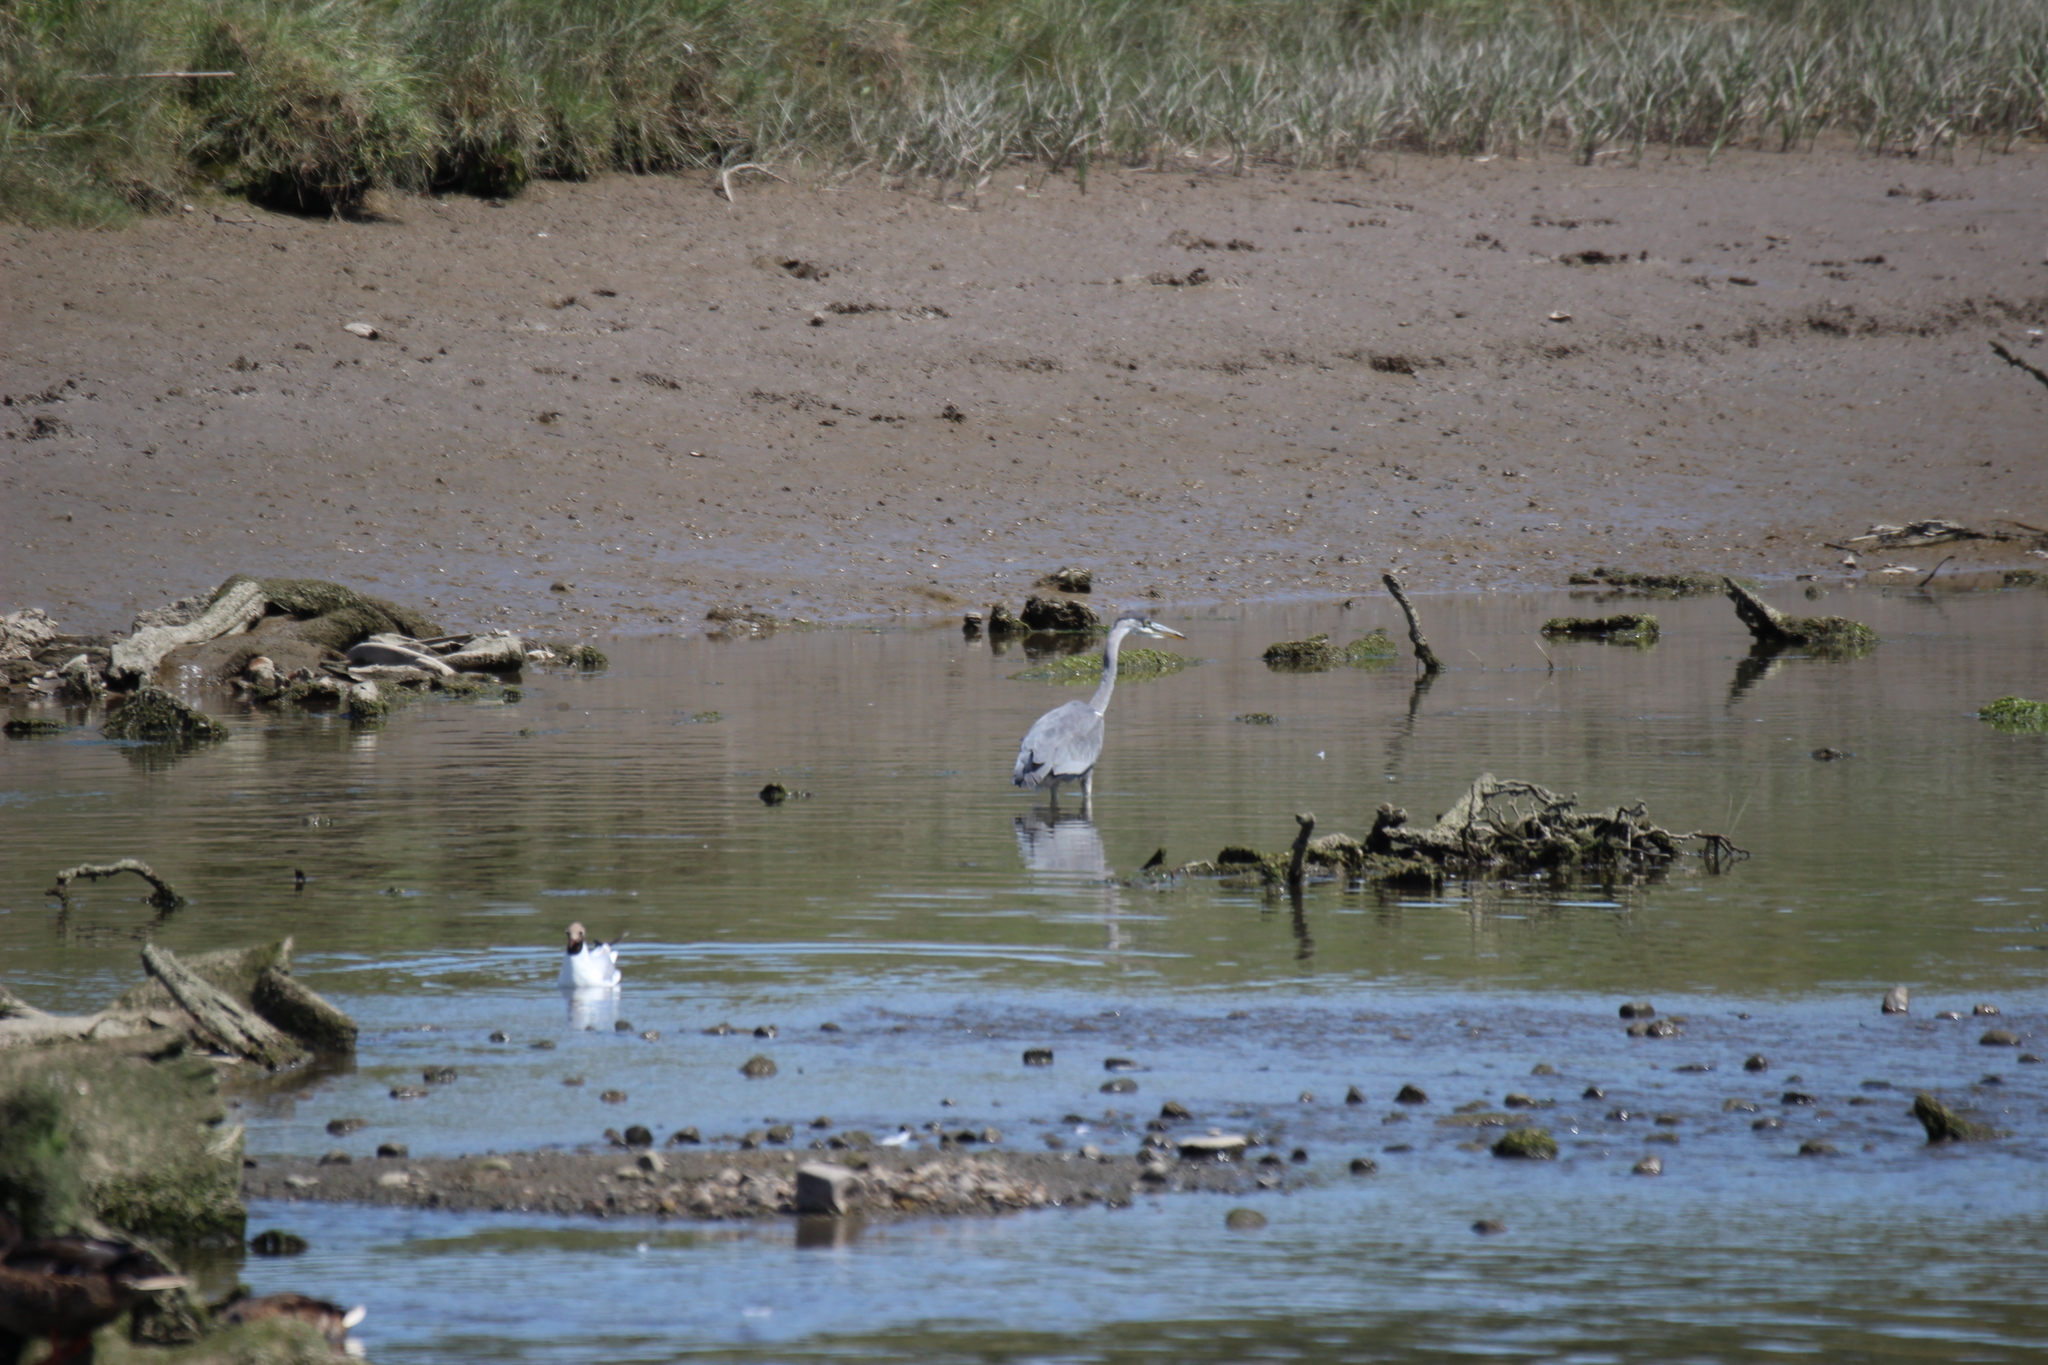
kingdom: Animalia
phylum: Chordata
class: Aves
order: Pelecaniformes
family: Ardeidae
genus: Ardea
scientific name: Ardea cinerea
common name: Grey heron
